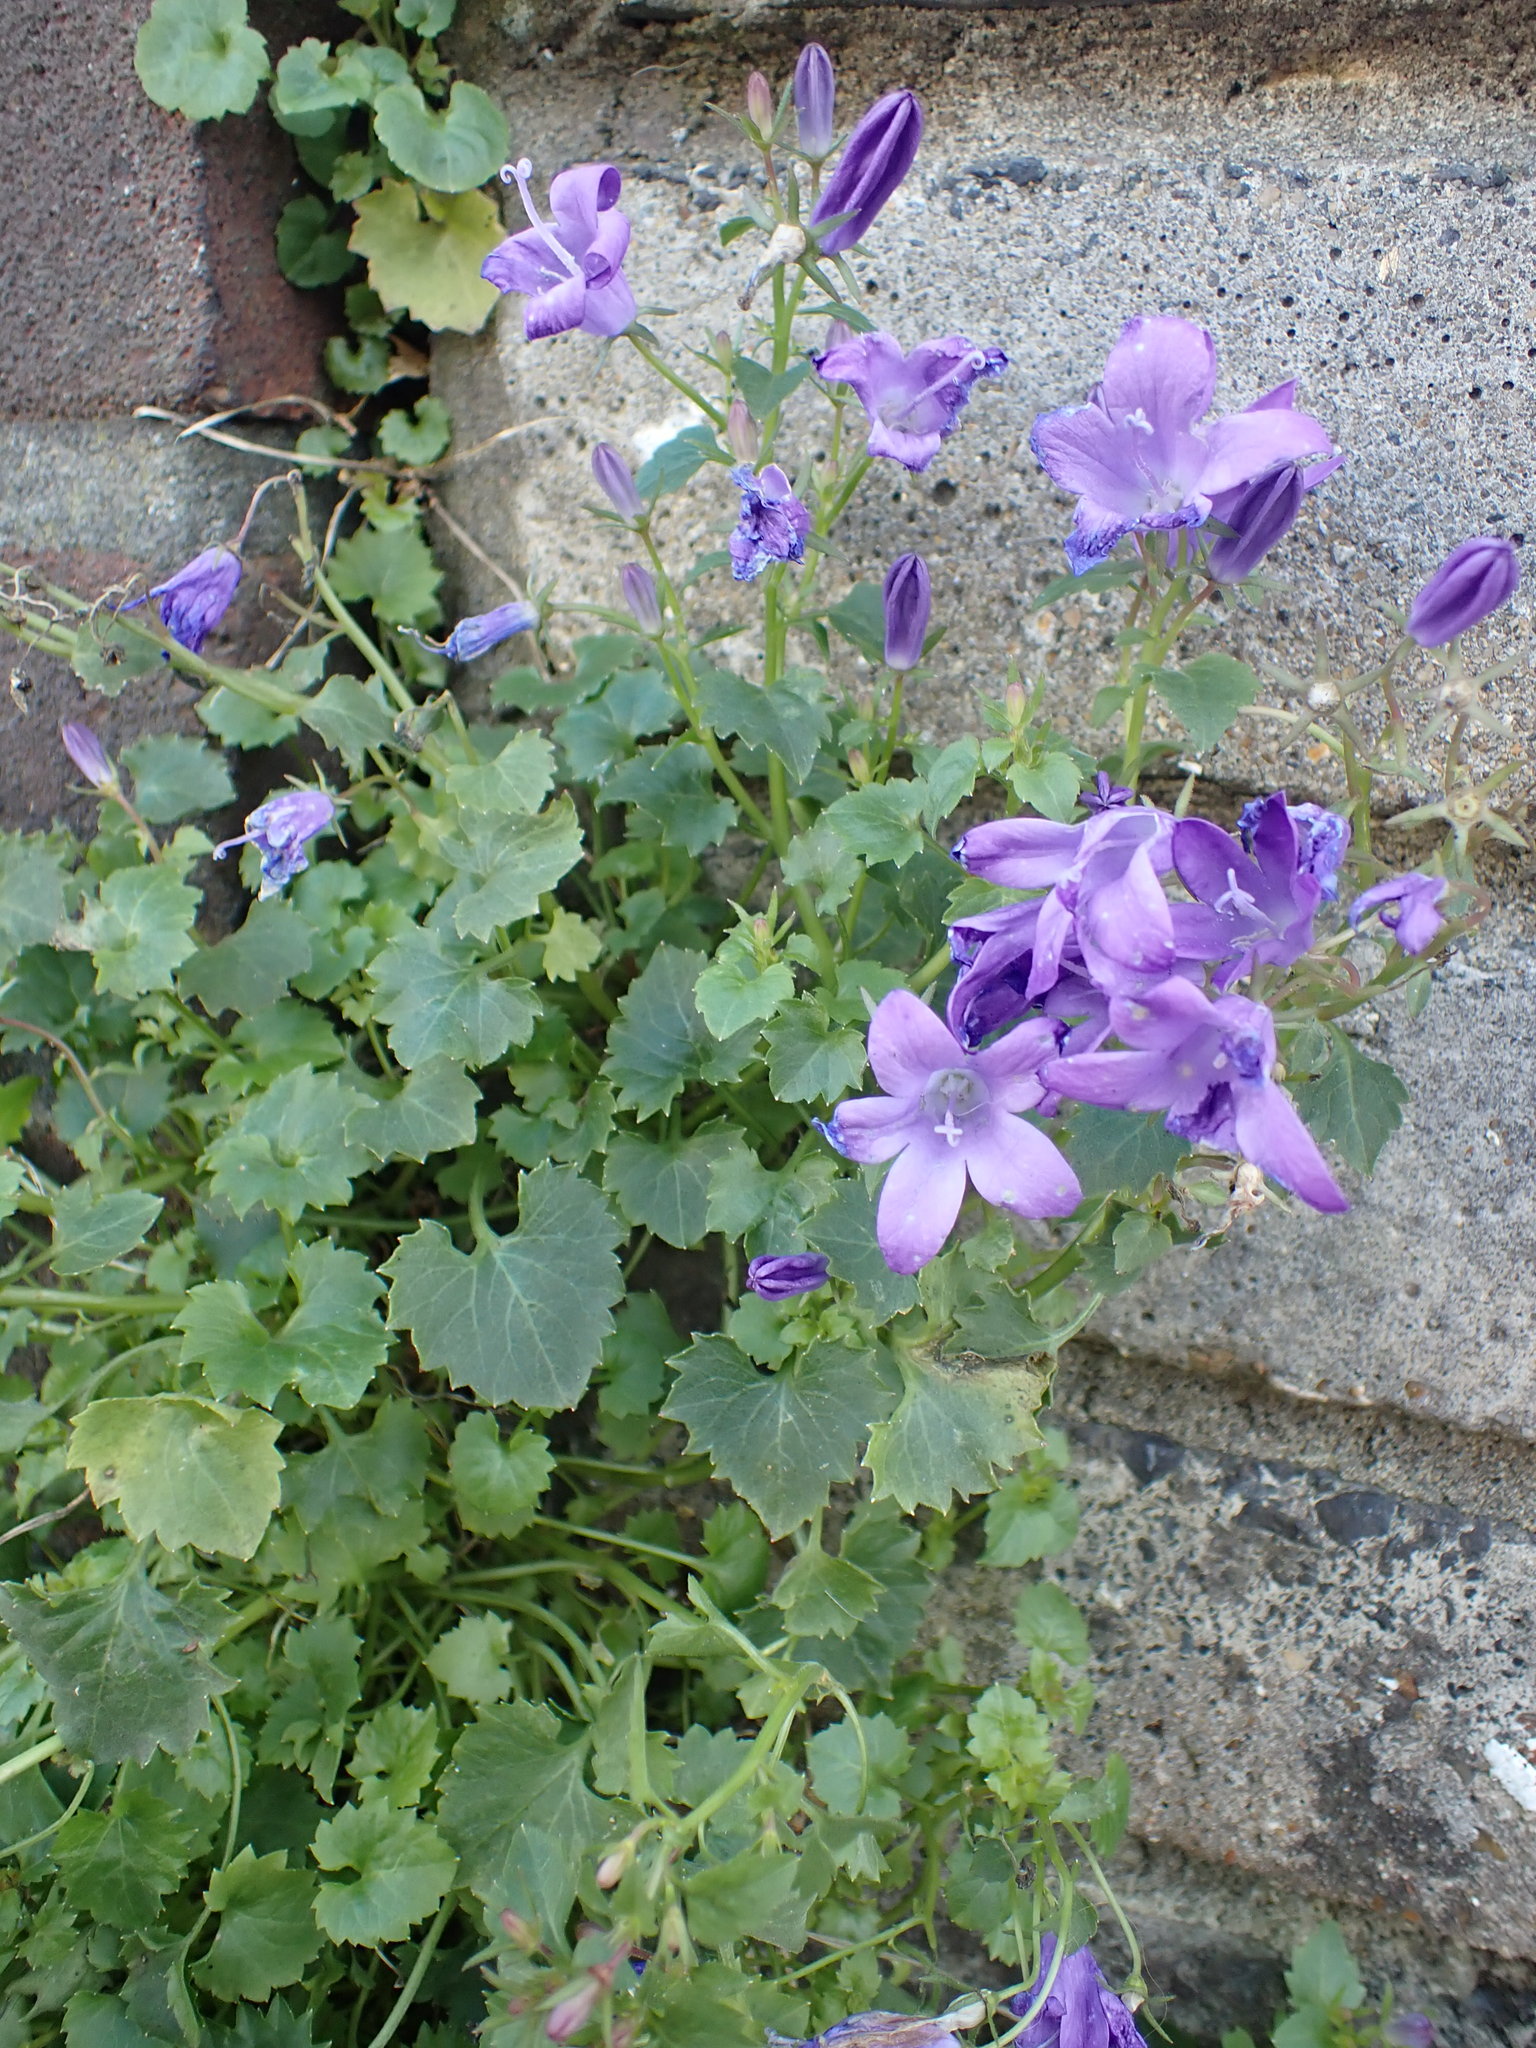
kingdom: Plantae
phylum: Tracheophyta
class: Magnoliopsida
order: Asterales
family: Campanulaceae
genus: Campanula
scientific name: Campanula portenschlagiana
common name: Adria bellflower
